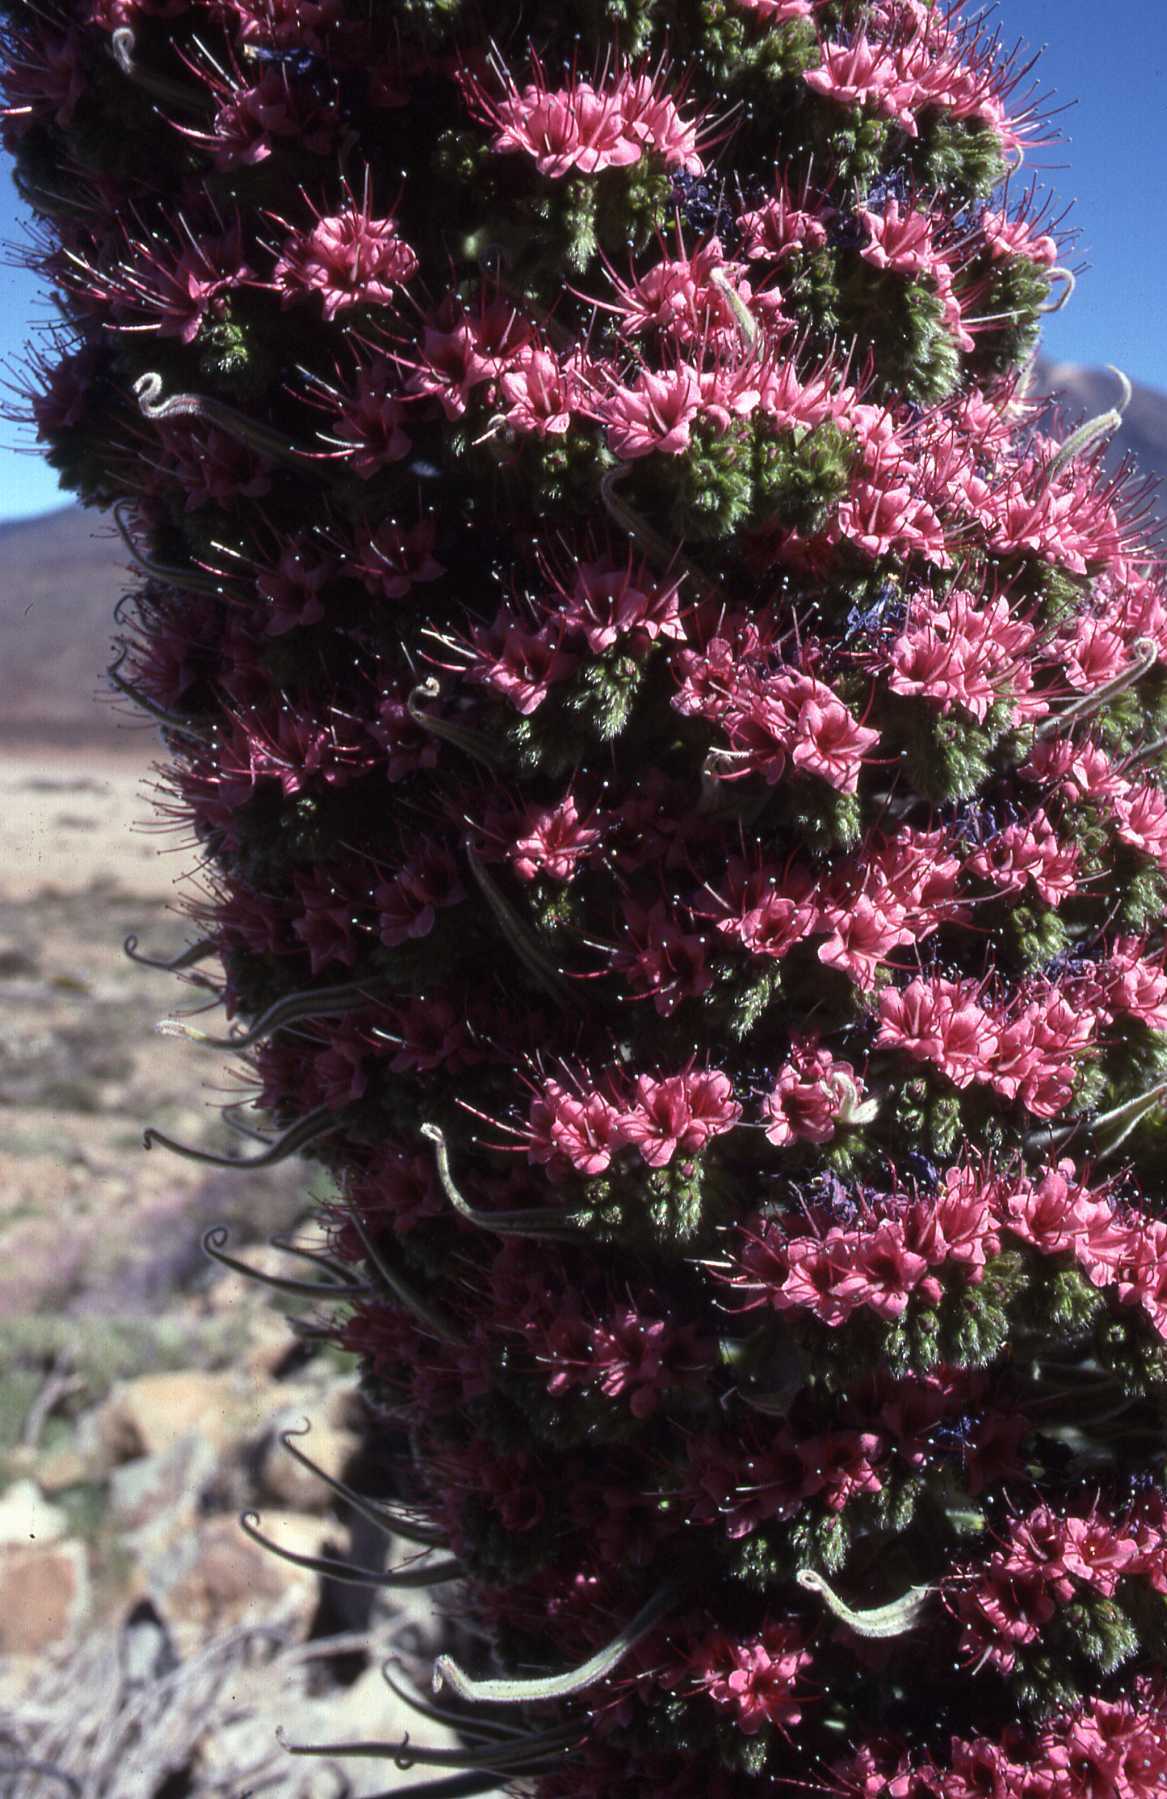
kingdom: Plantae
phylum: Tracheophyta
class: Magnoliopsida
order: Boraginales
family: Boraginaceae
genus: Echium
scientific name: Echium wildpretii
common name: Tower-of-jewels
